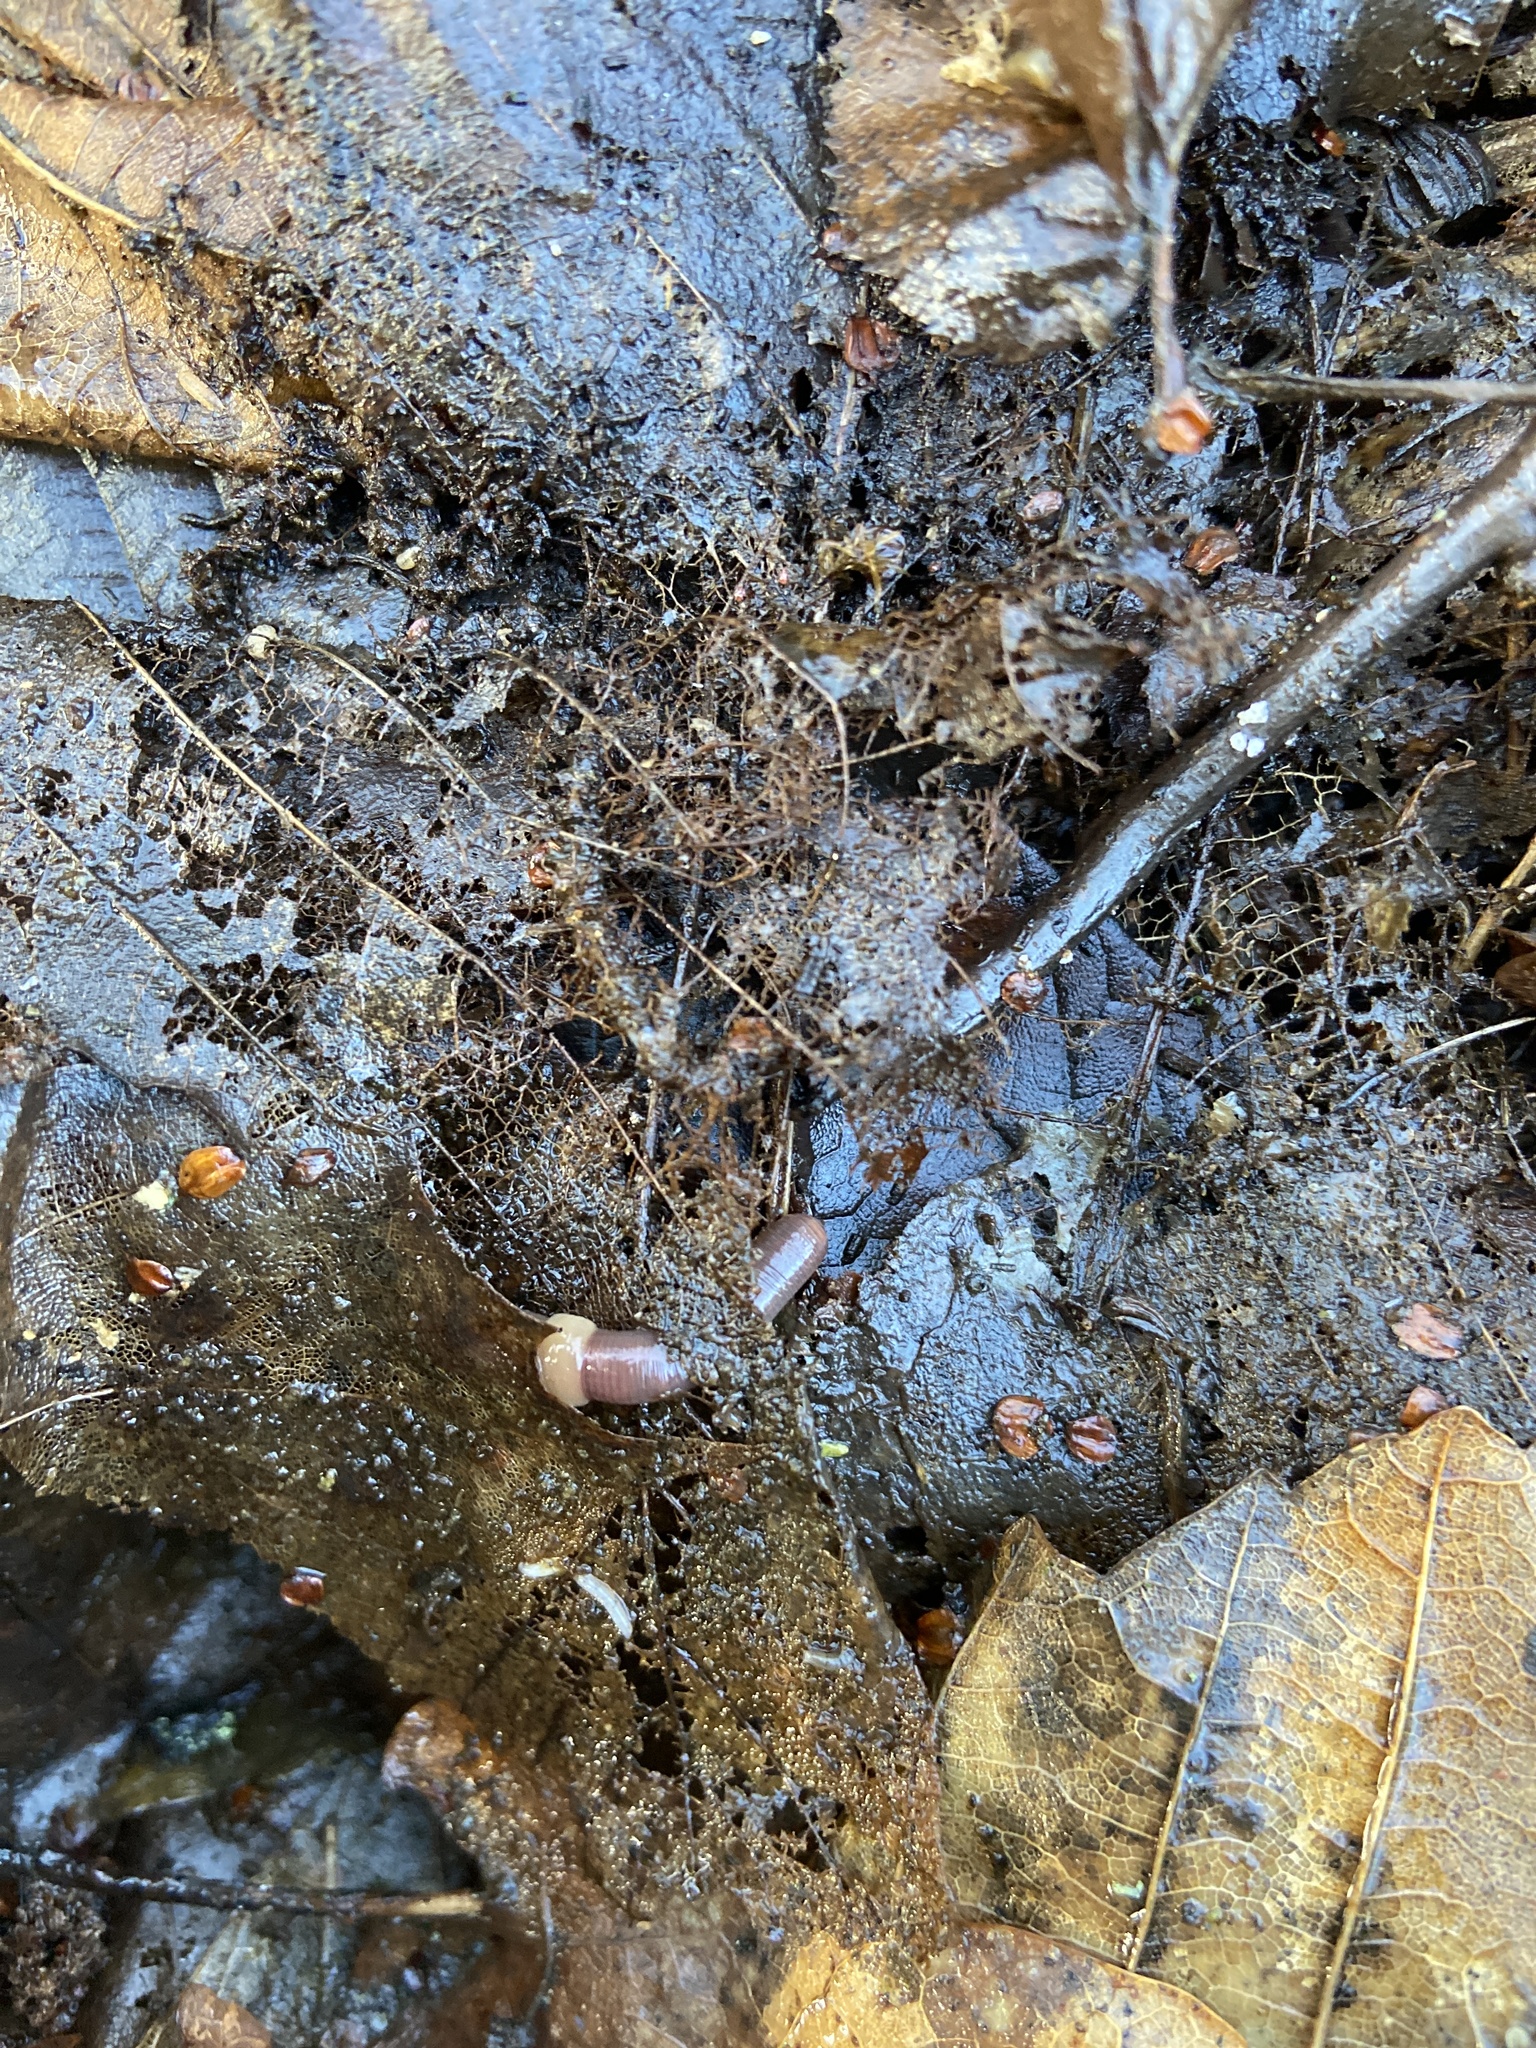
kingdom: Animalia
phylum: Annelida
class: Clitellata
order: Crassiclitellata
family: Lumbricidae
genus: Lumbricus
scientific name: Lumbricus terrestris
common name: Common earthworm
